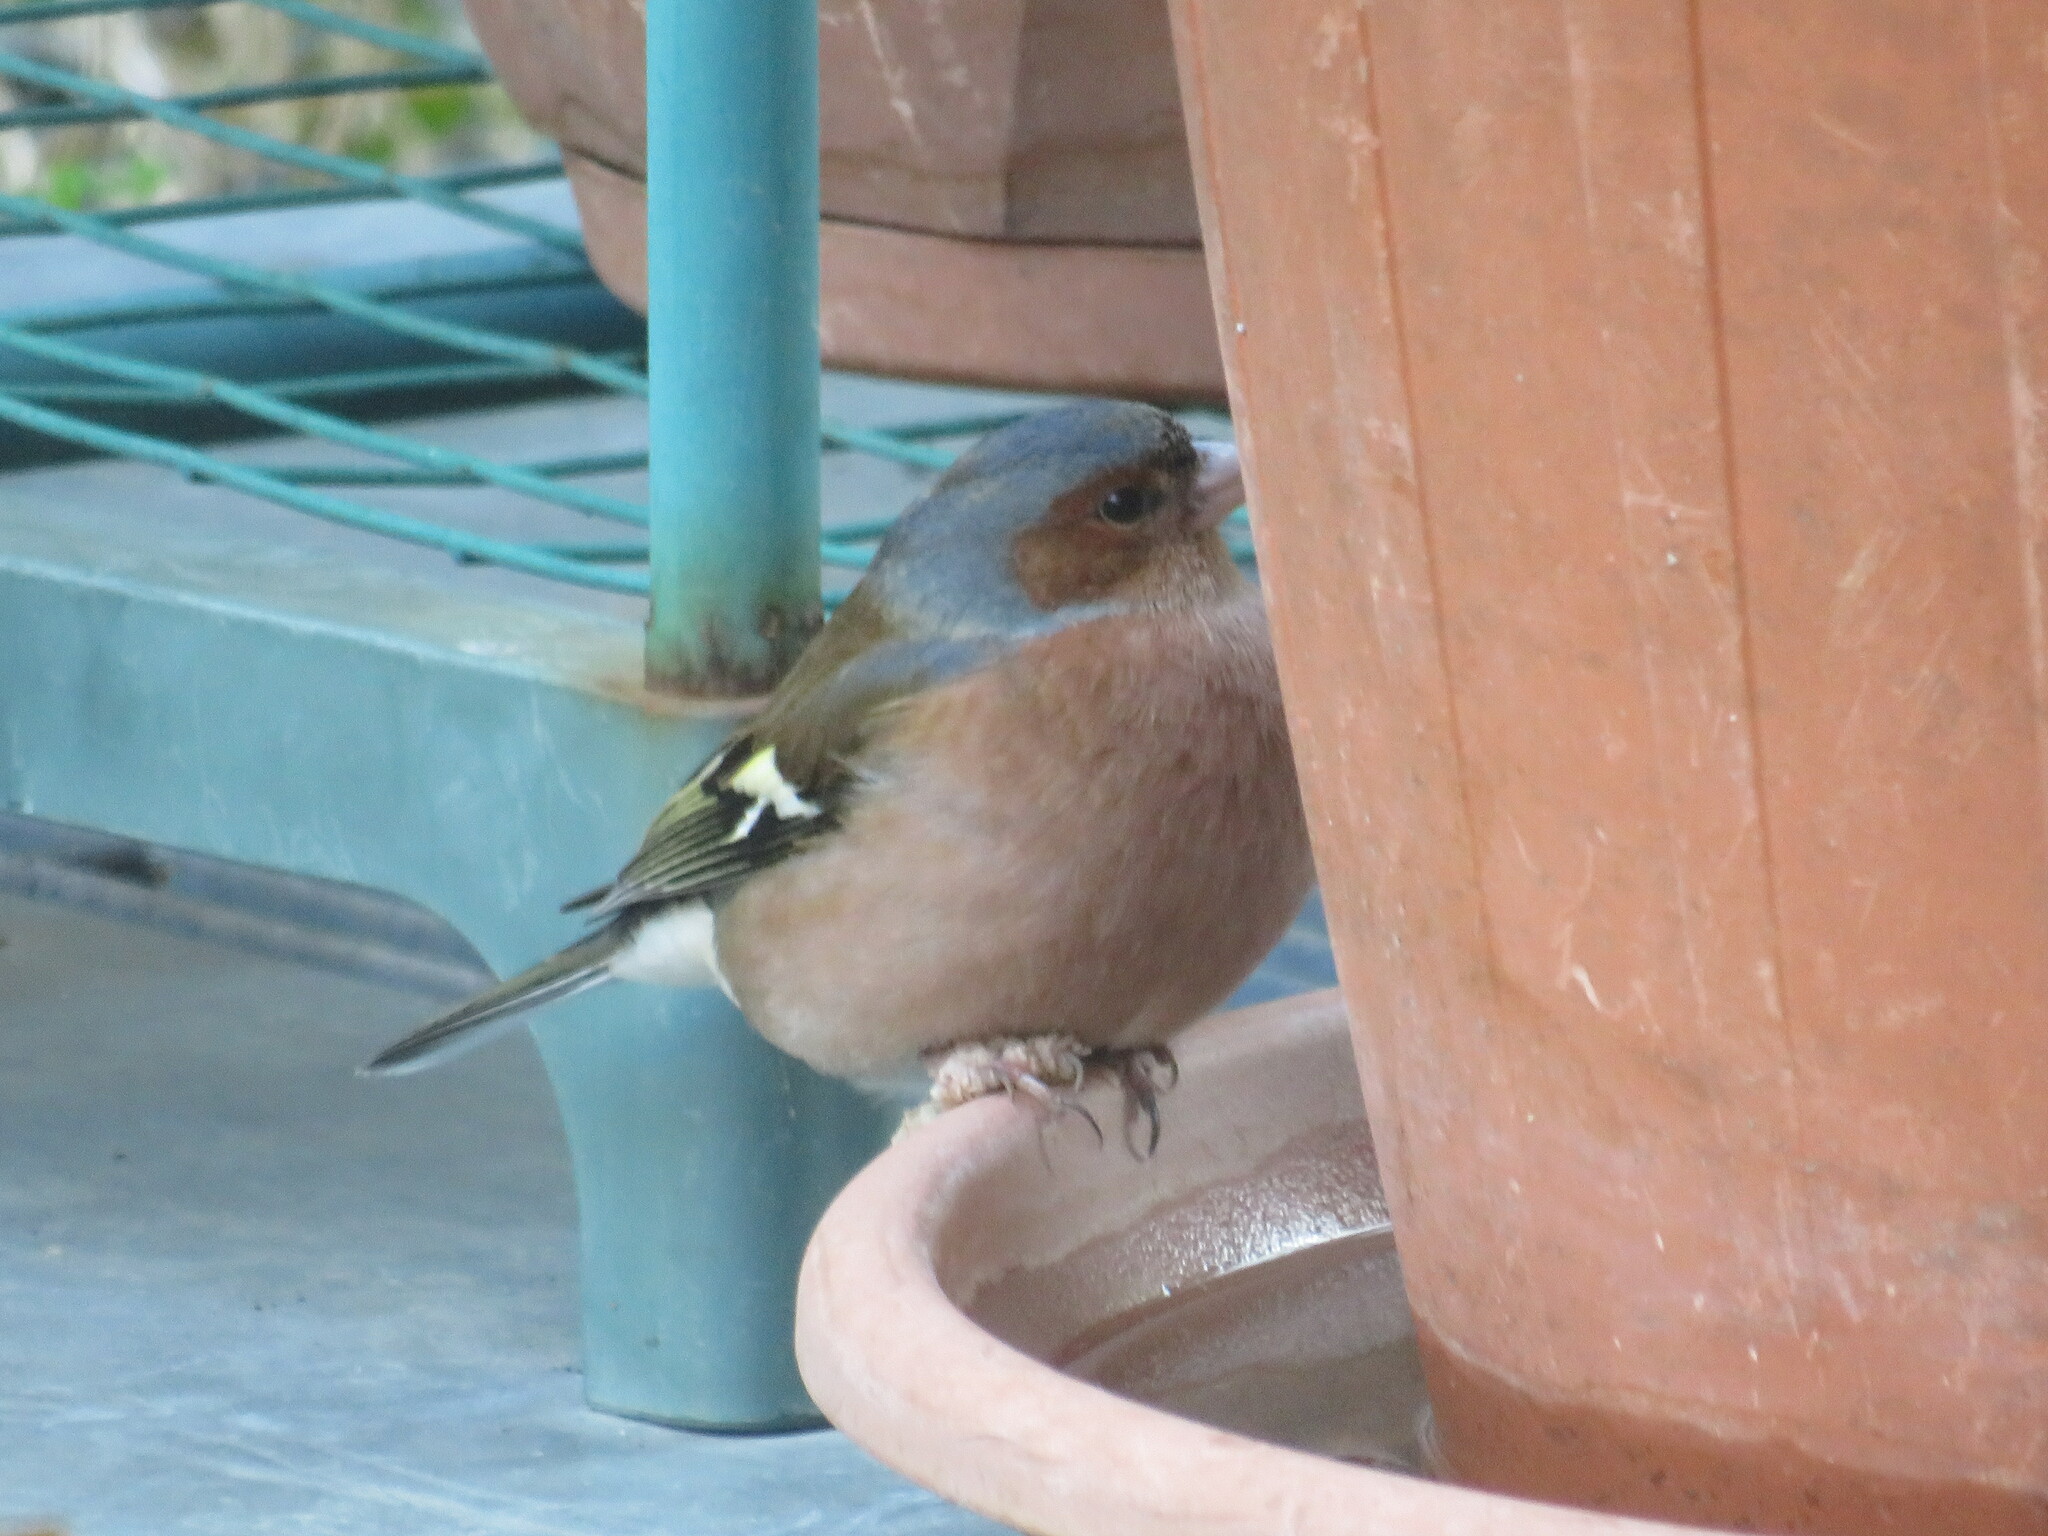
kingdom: Animalia
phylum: Chordata
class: Aves
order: Passeriformes
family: Fringillidae
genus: Fringilla
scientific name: Fringilla coelebs
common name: Common chaffinch
